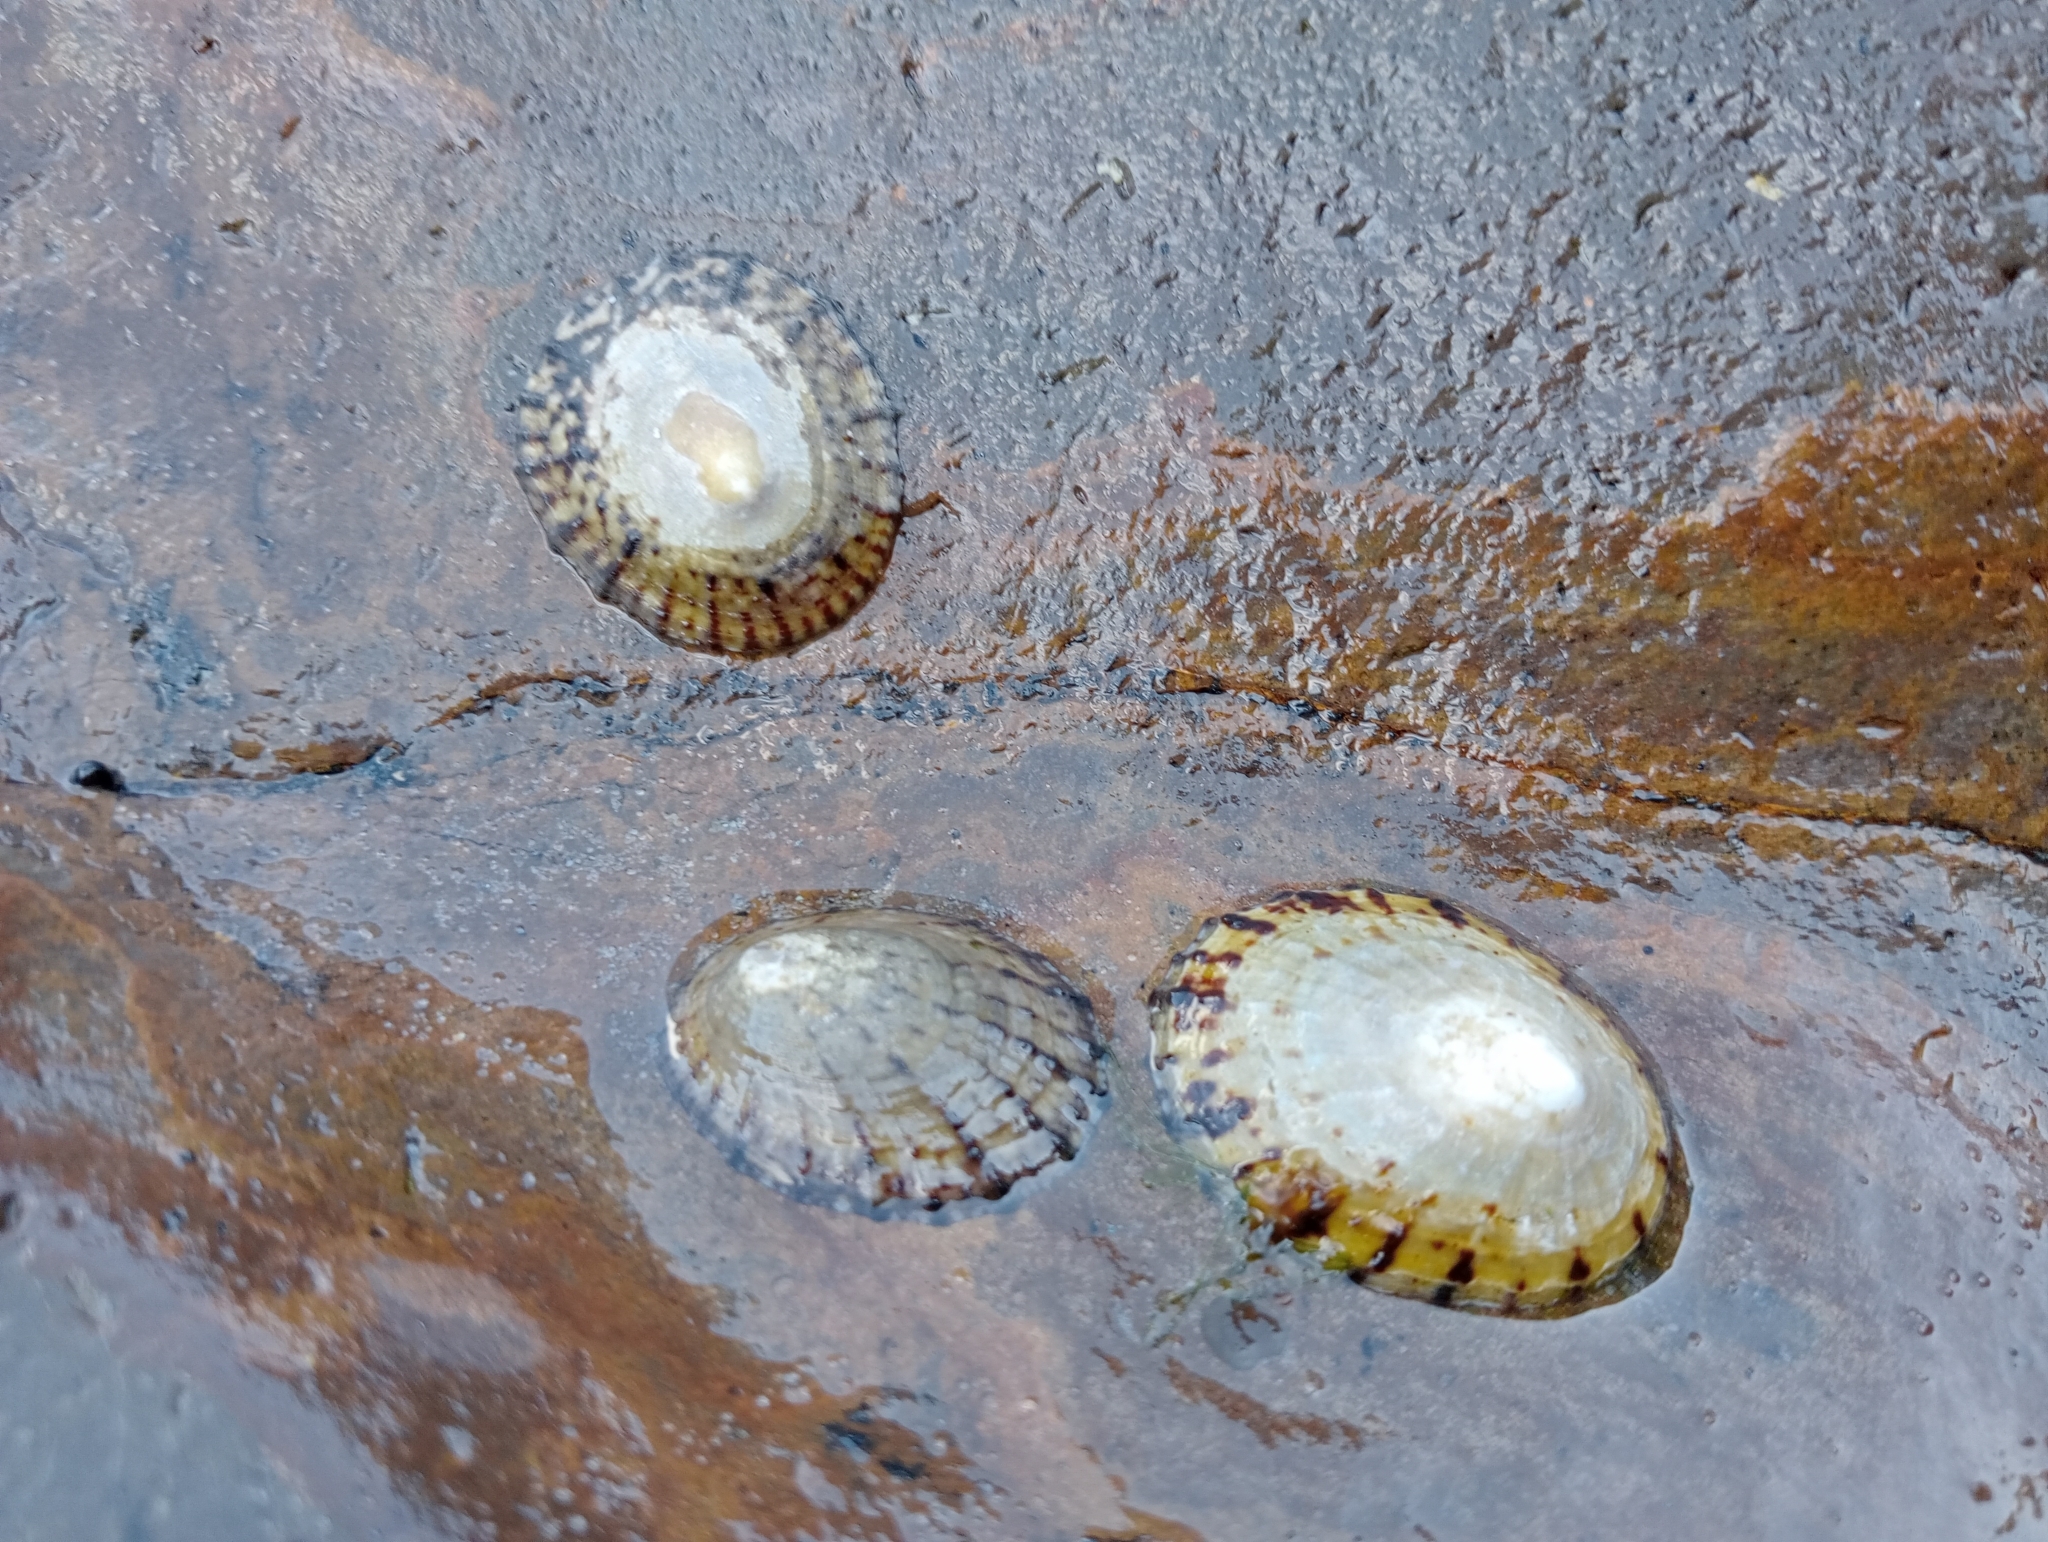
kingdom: Animalia
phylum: Mollusca
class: Gastropoda
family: Nacellidae
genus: Cellana
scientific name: Cellana radians
